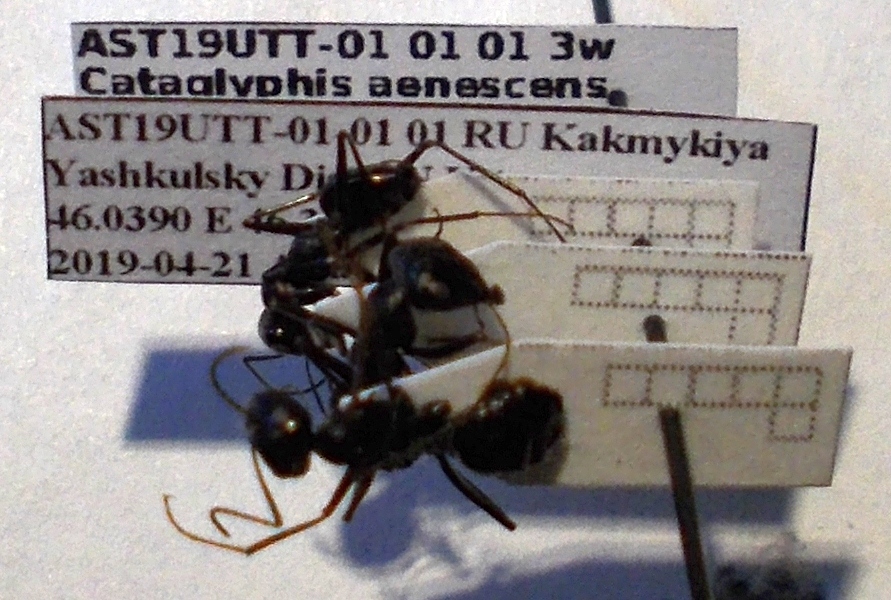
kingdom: Animalia
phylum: Arthropoda
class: Insecta
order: Hymenoptera
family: Formicidae
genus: Cataglyphis
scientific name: Cataglyphis aenescens
